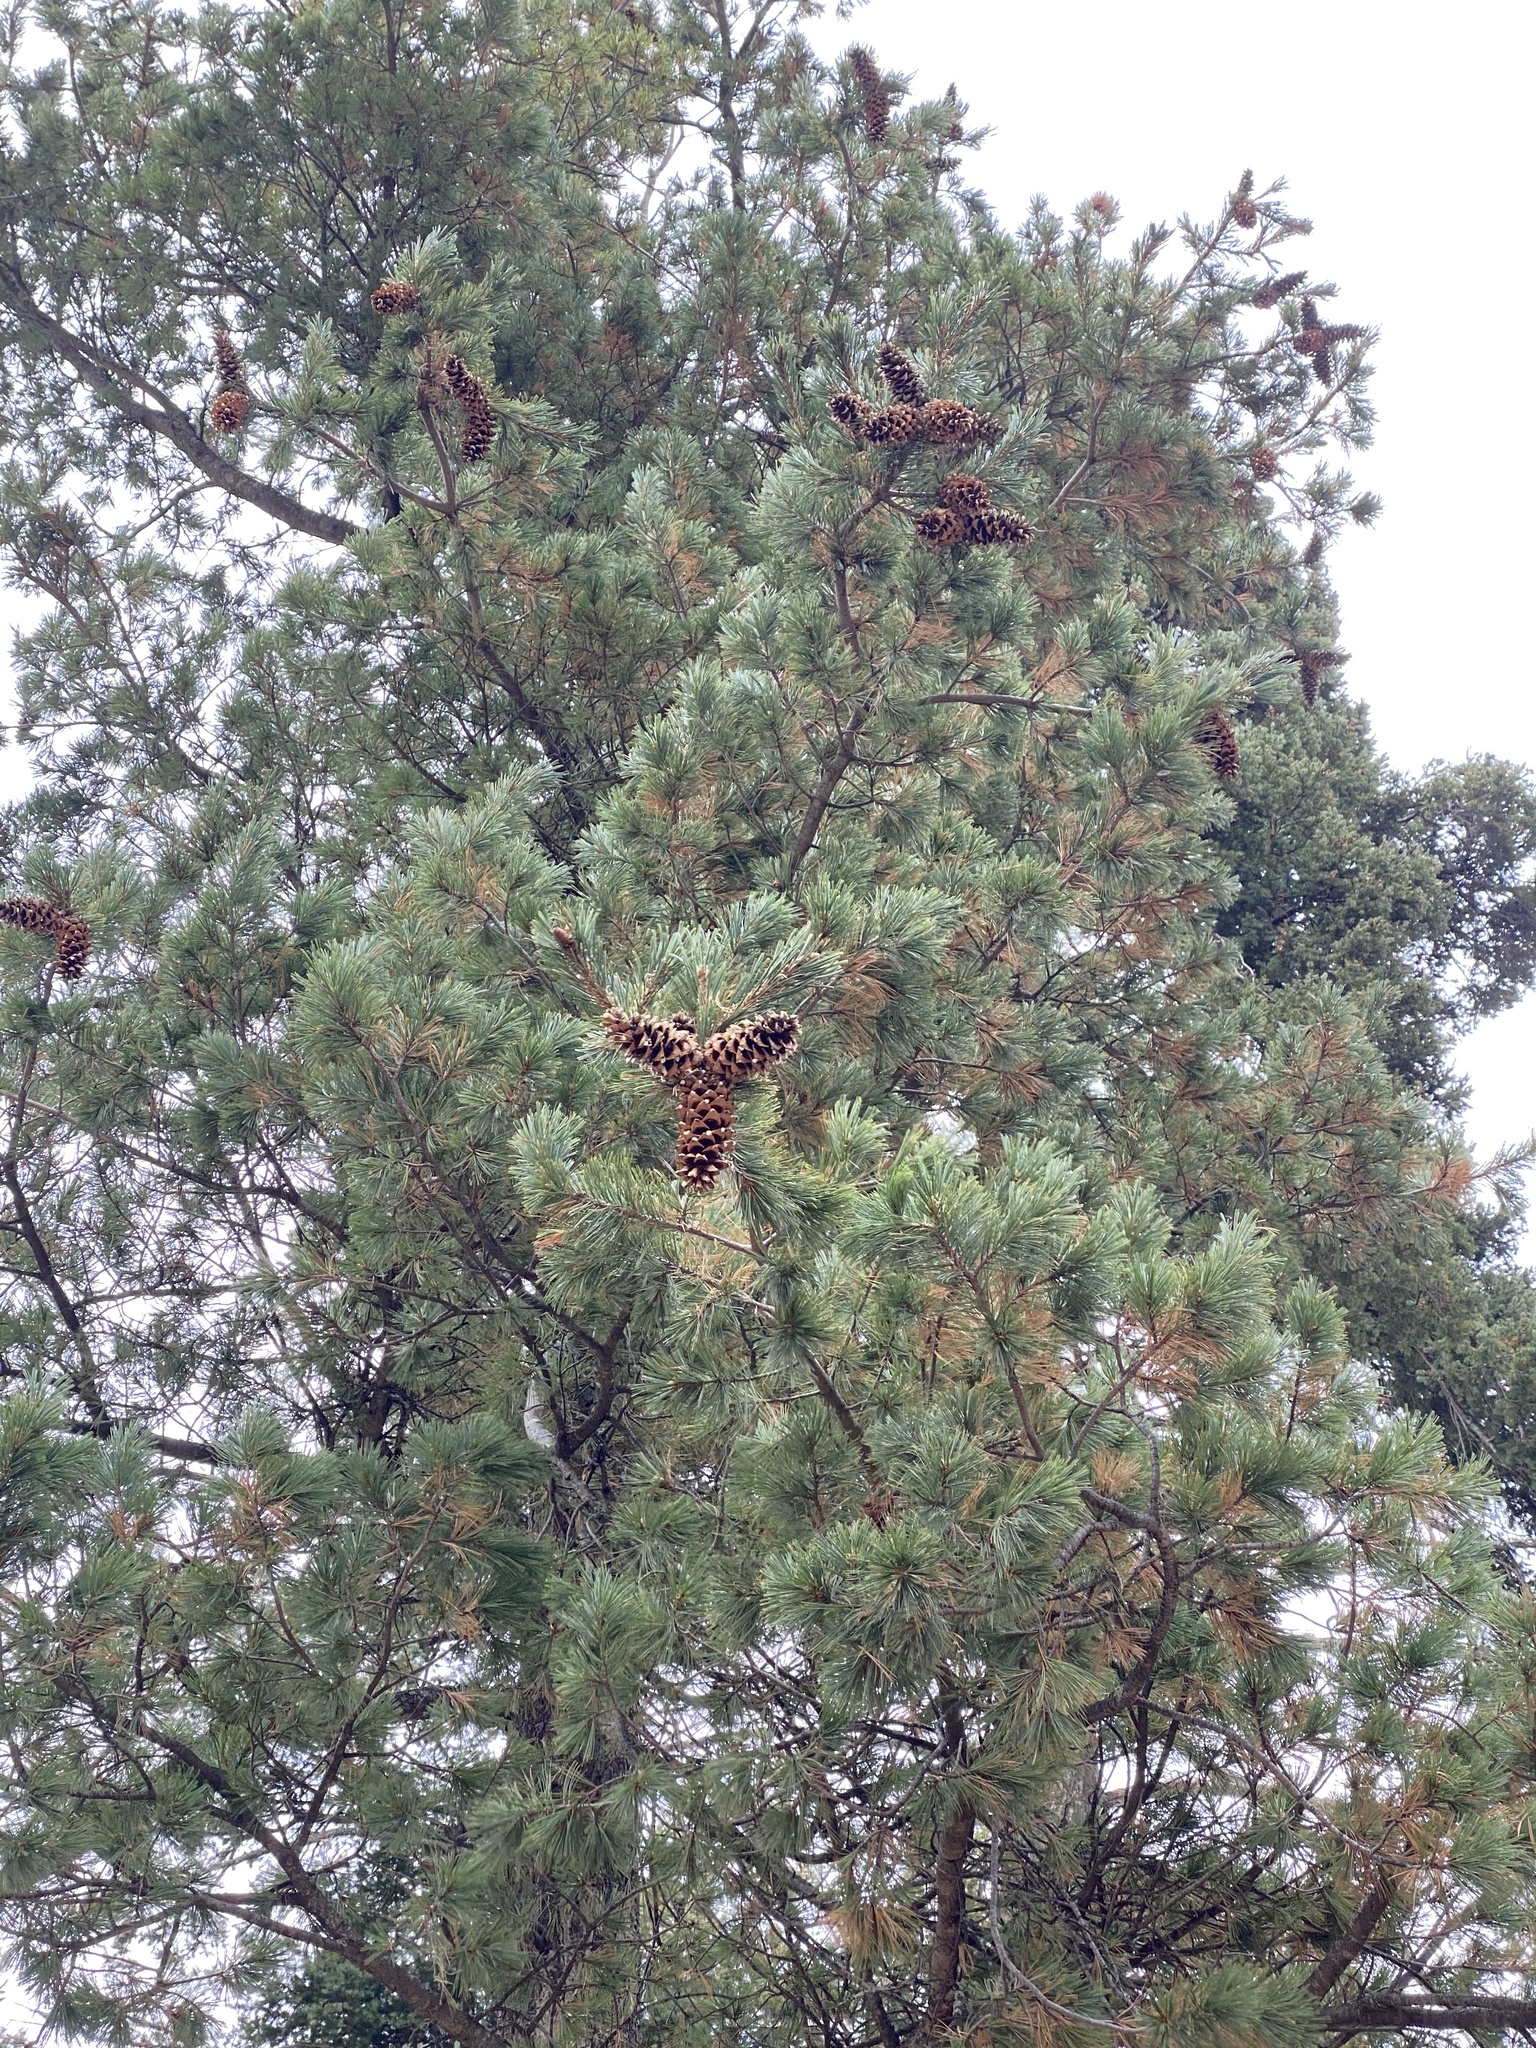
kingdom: Plantae
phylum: Tracheophyta
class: Pinopsida
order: Pinales
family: Pinaceae
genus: Pinus
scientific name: Pinus strobiformis
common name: Southwestern white pine
